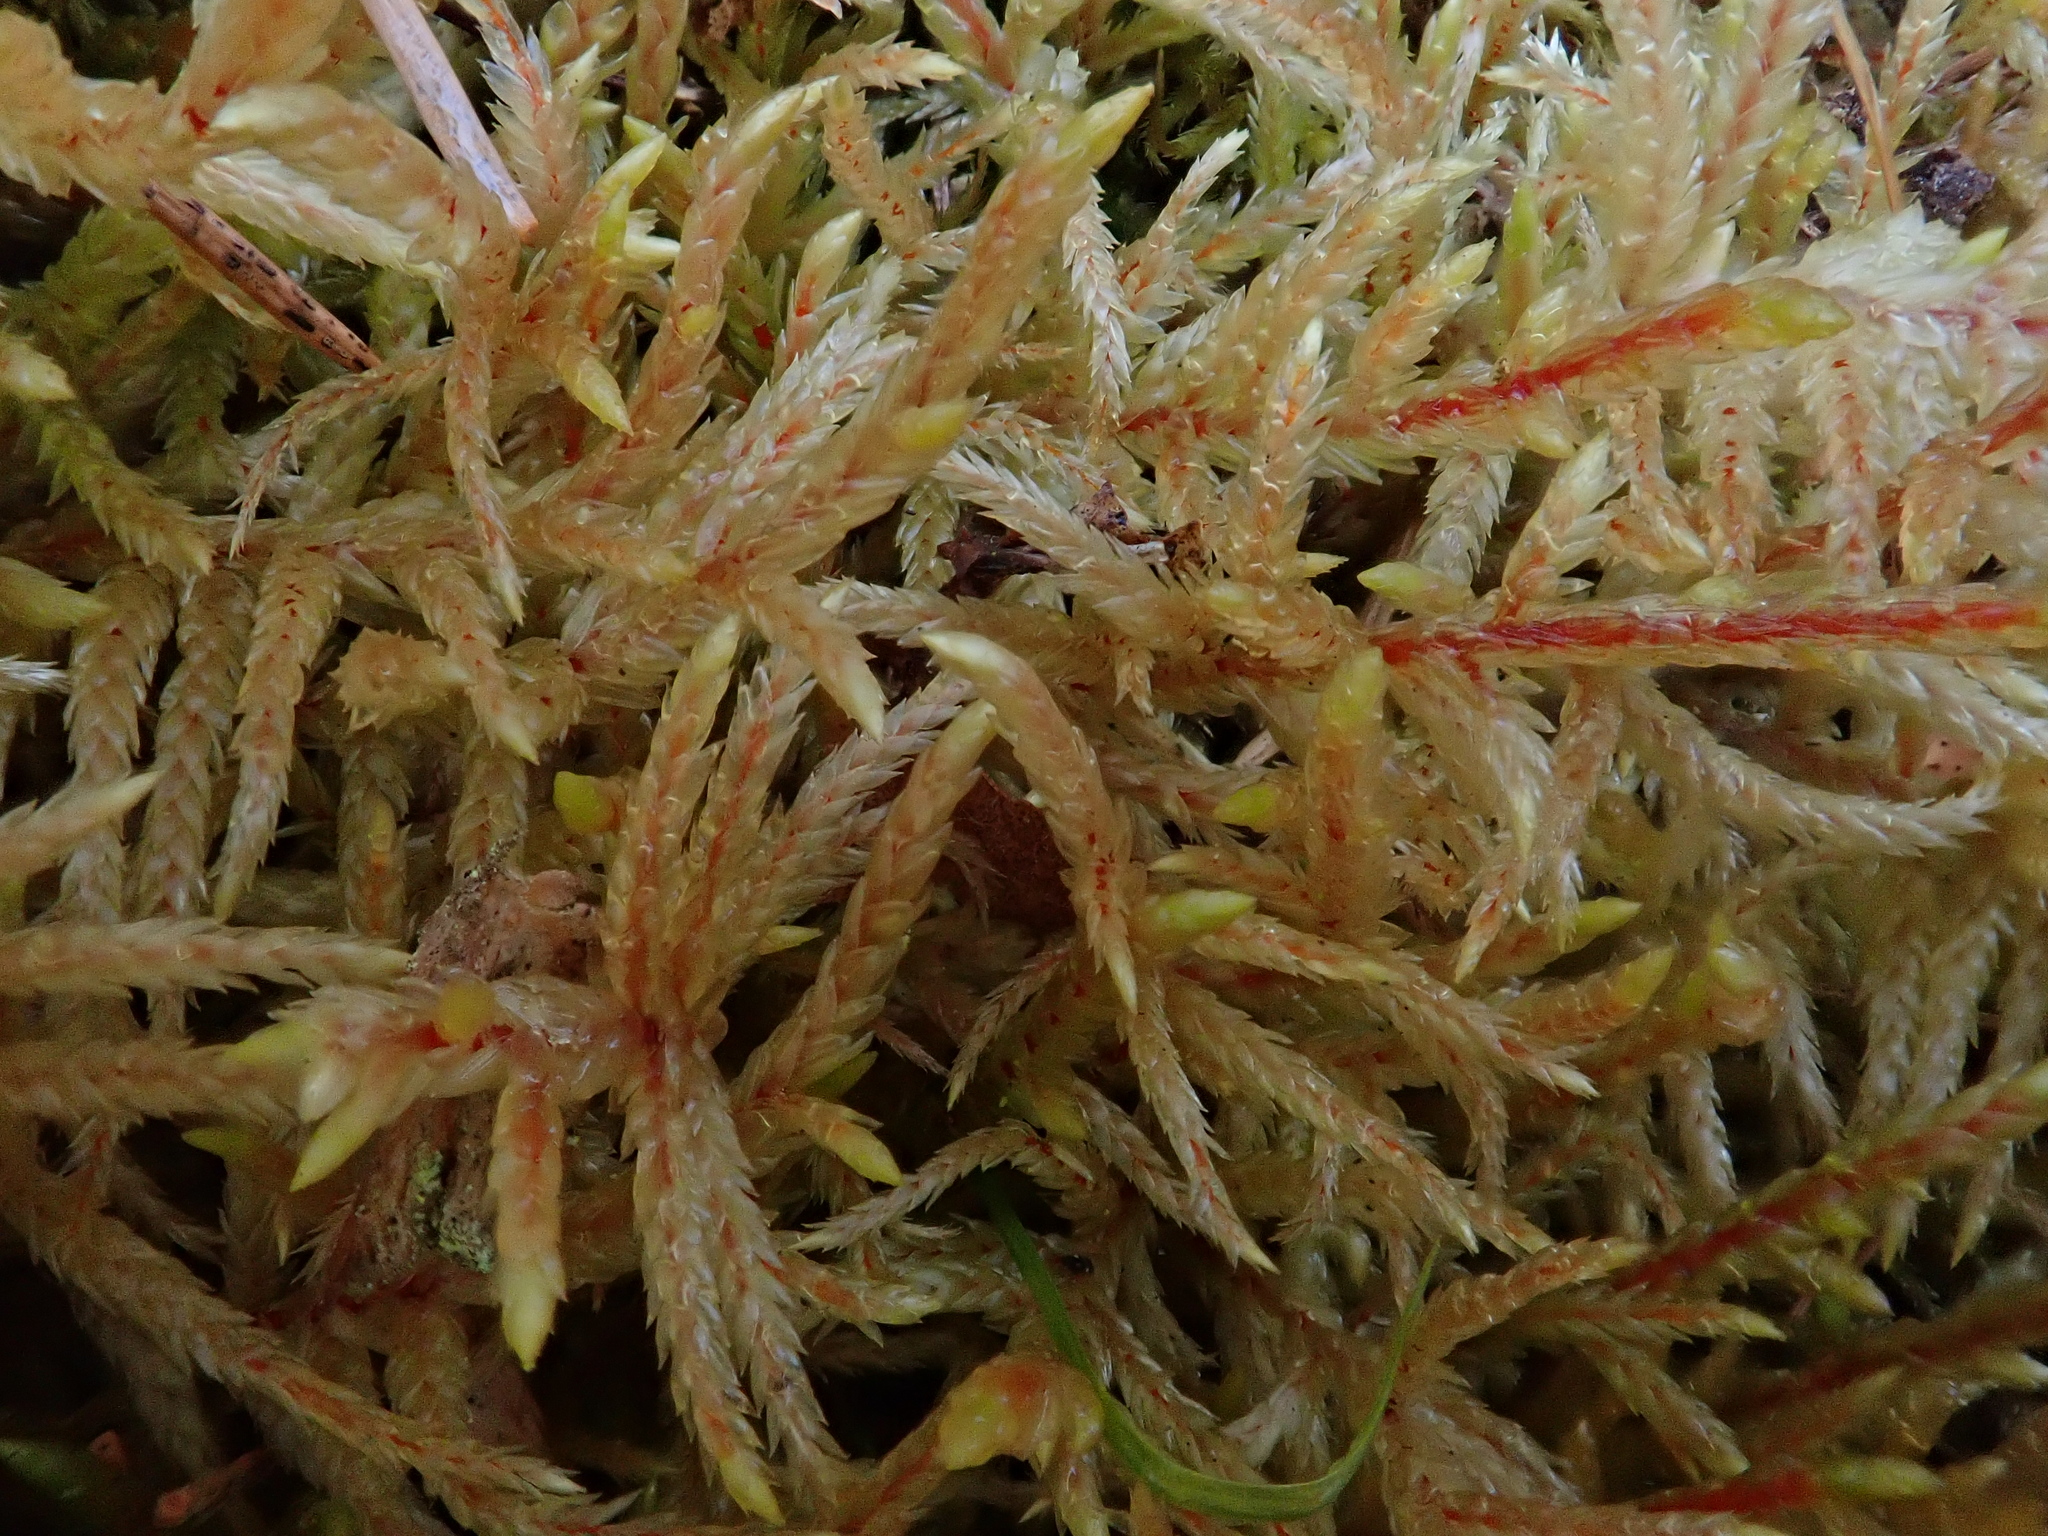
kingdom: Plantae
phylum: Bryophyta
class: Bryopsida
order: Hypnales
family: Hylocomiaceae
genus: Pleurozium
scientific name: Pleurozium schreberi
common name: Red-stemmed feather moss
